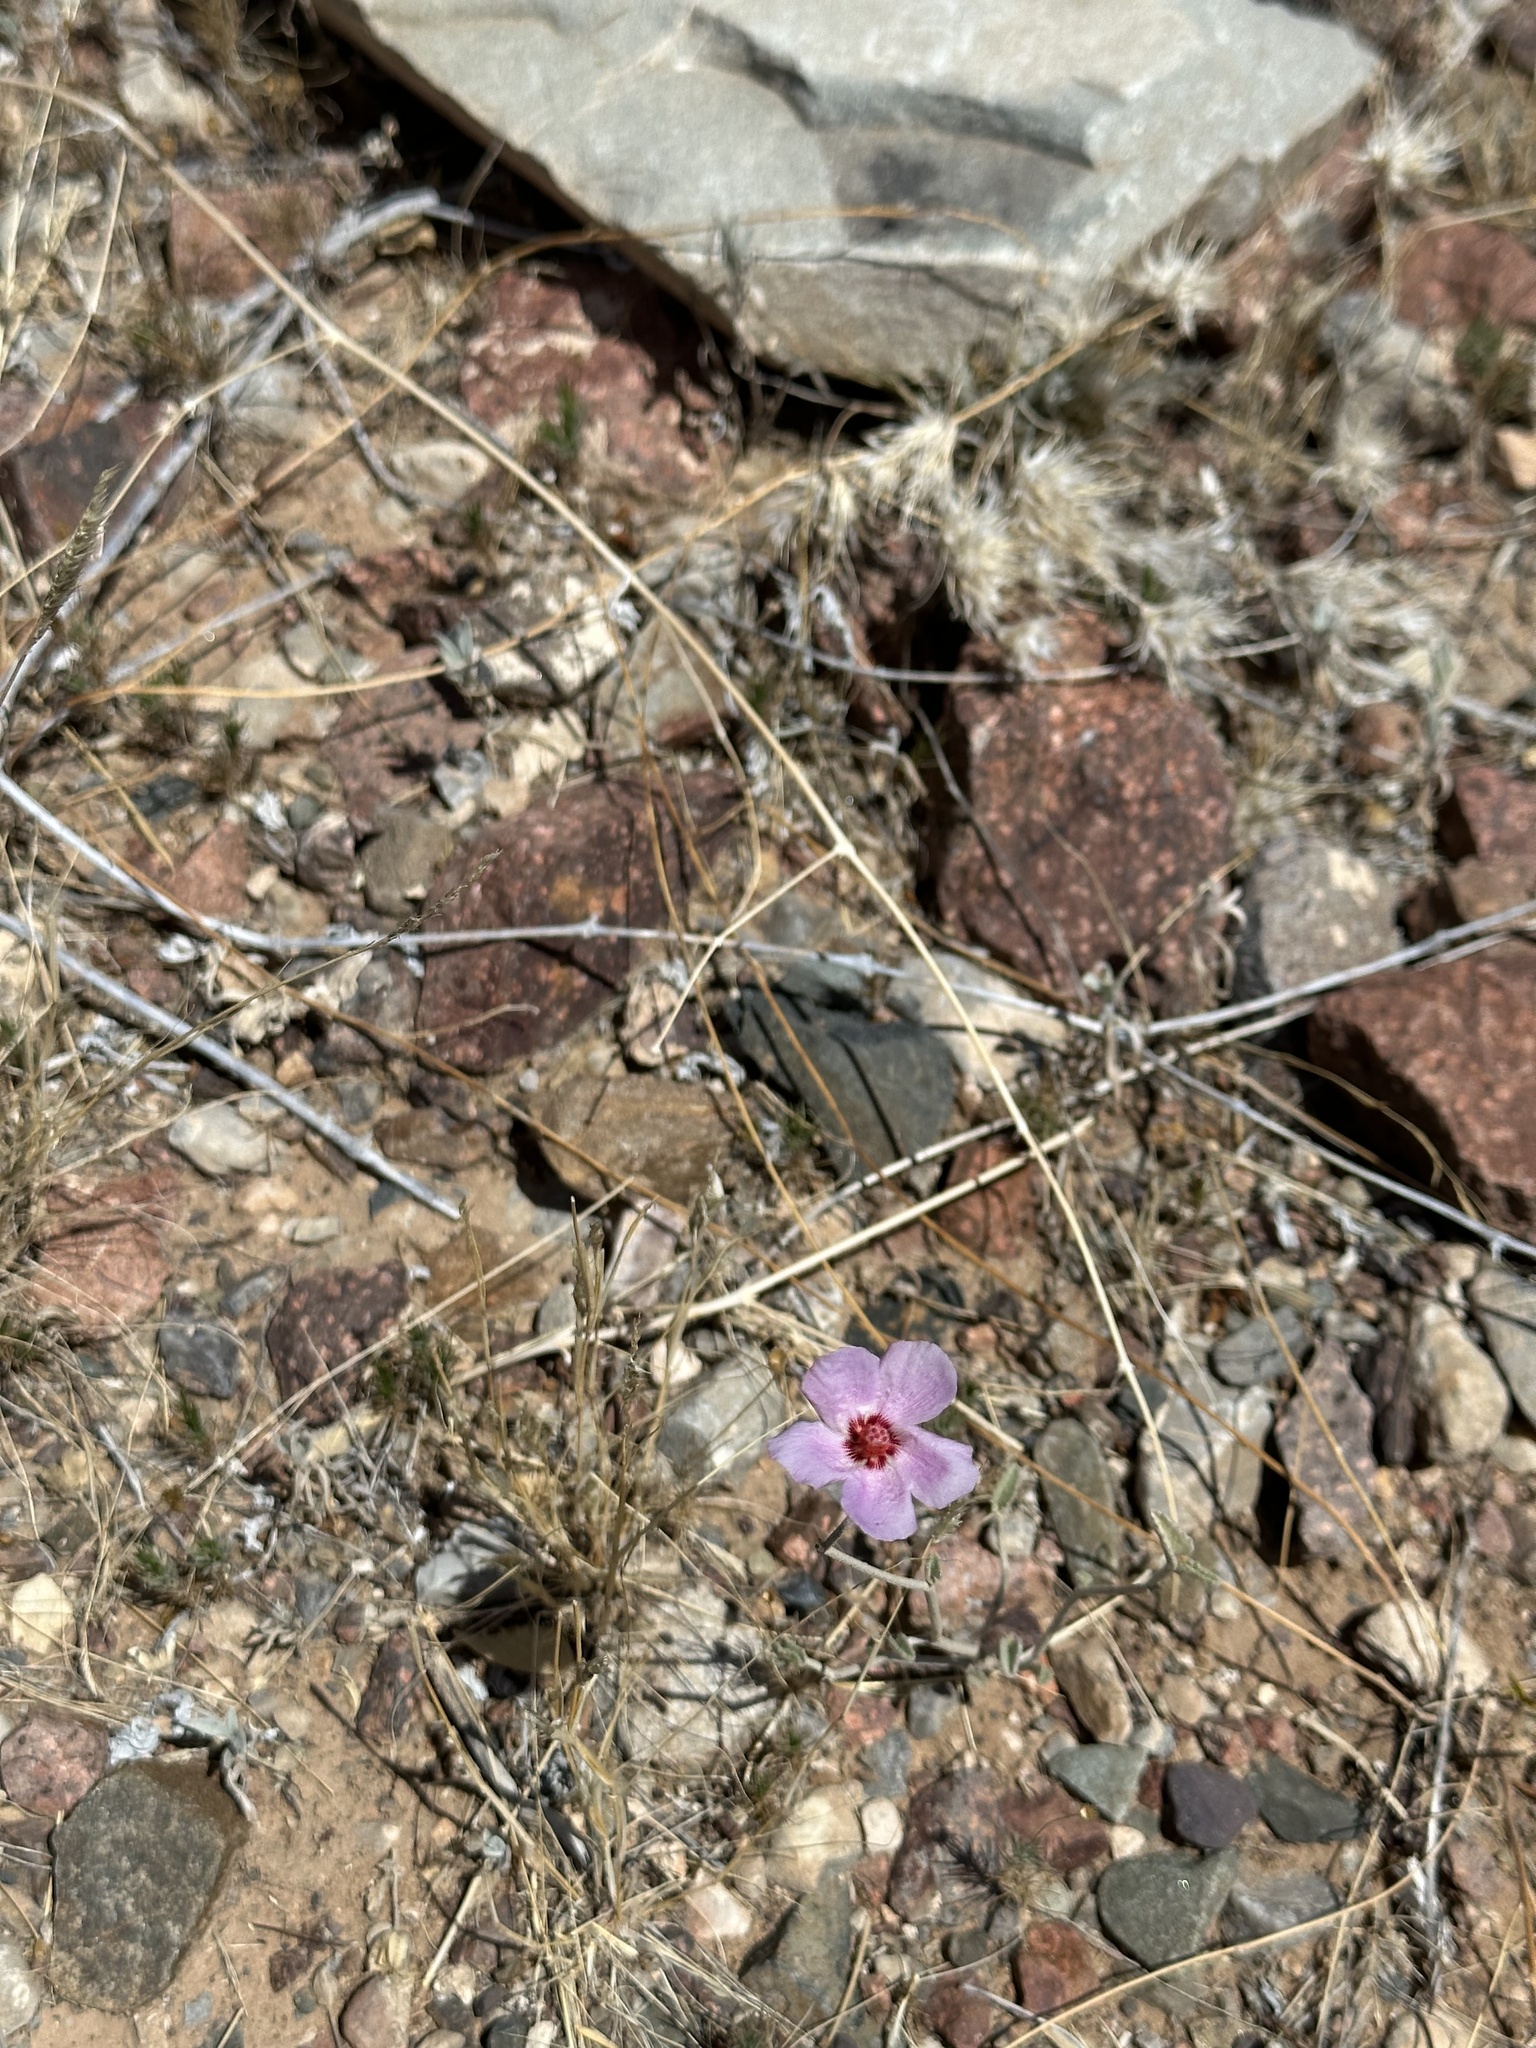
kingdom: Plantae
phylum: Tracheophyta
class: Magnoliopsida
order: Malvales
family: Malvaceae
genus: Hibiscus
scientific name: Hibiscus denudatus
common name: Paleface
